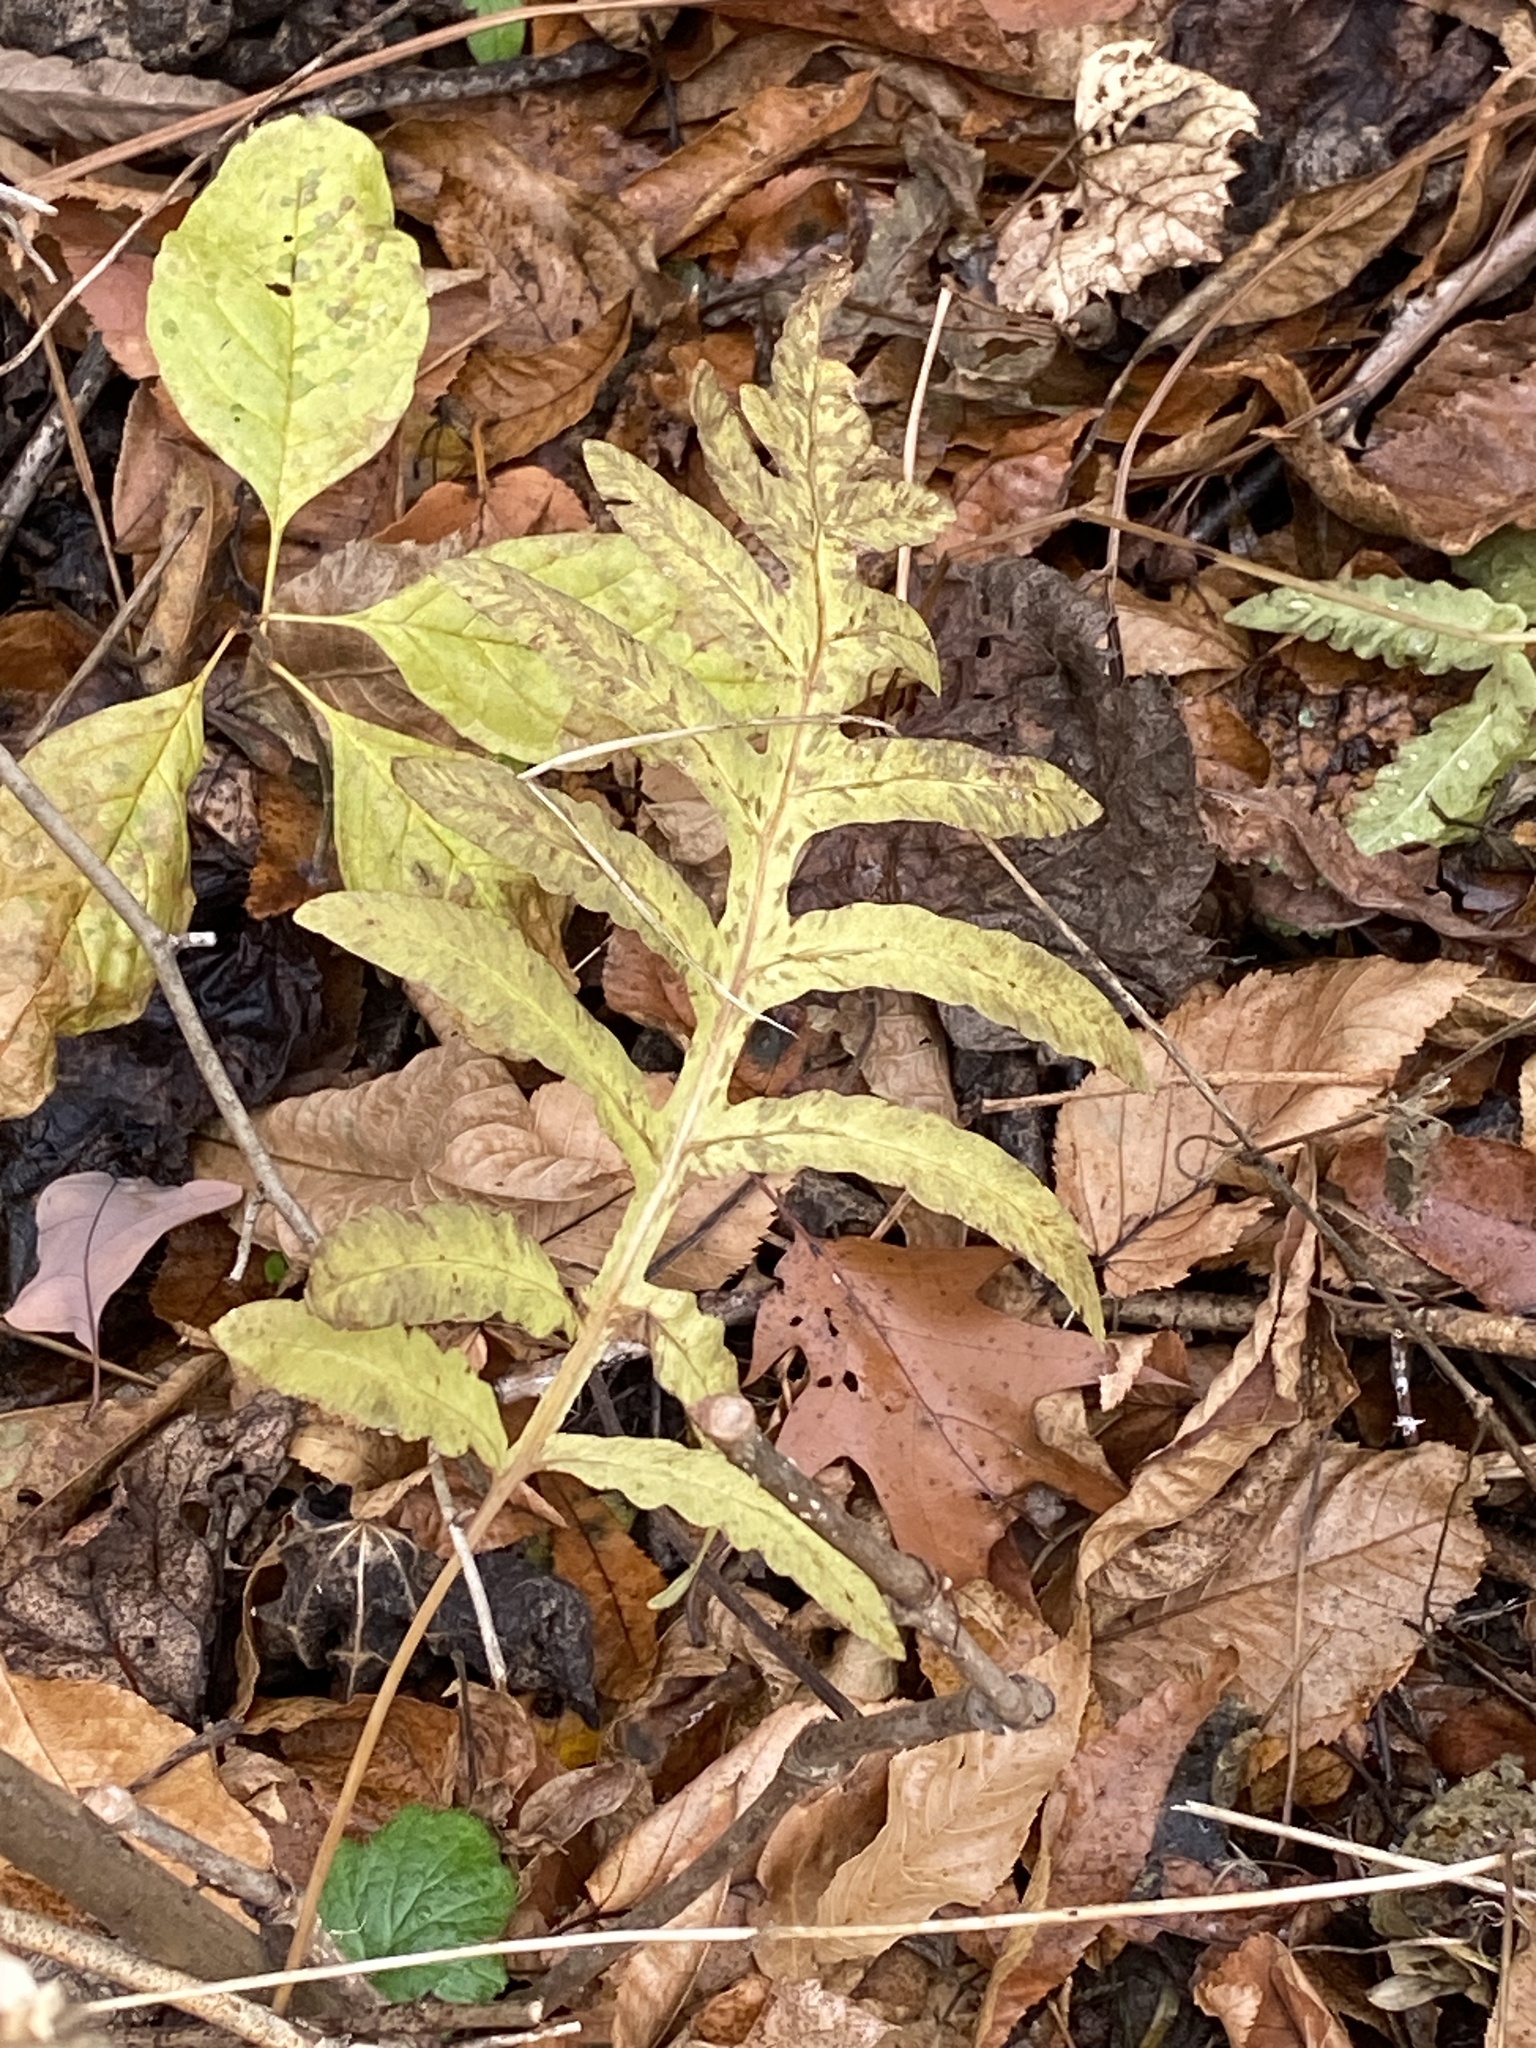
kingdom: Plantae
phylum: Tracheophyta
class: Polypodiopsida
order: Polypodiales
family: Onocleaceae
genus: Onoclea
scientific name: Onoclea sensibilis
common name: Sensitive fern
